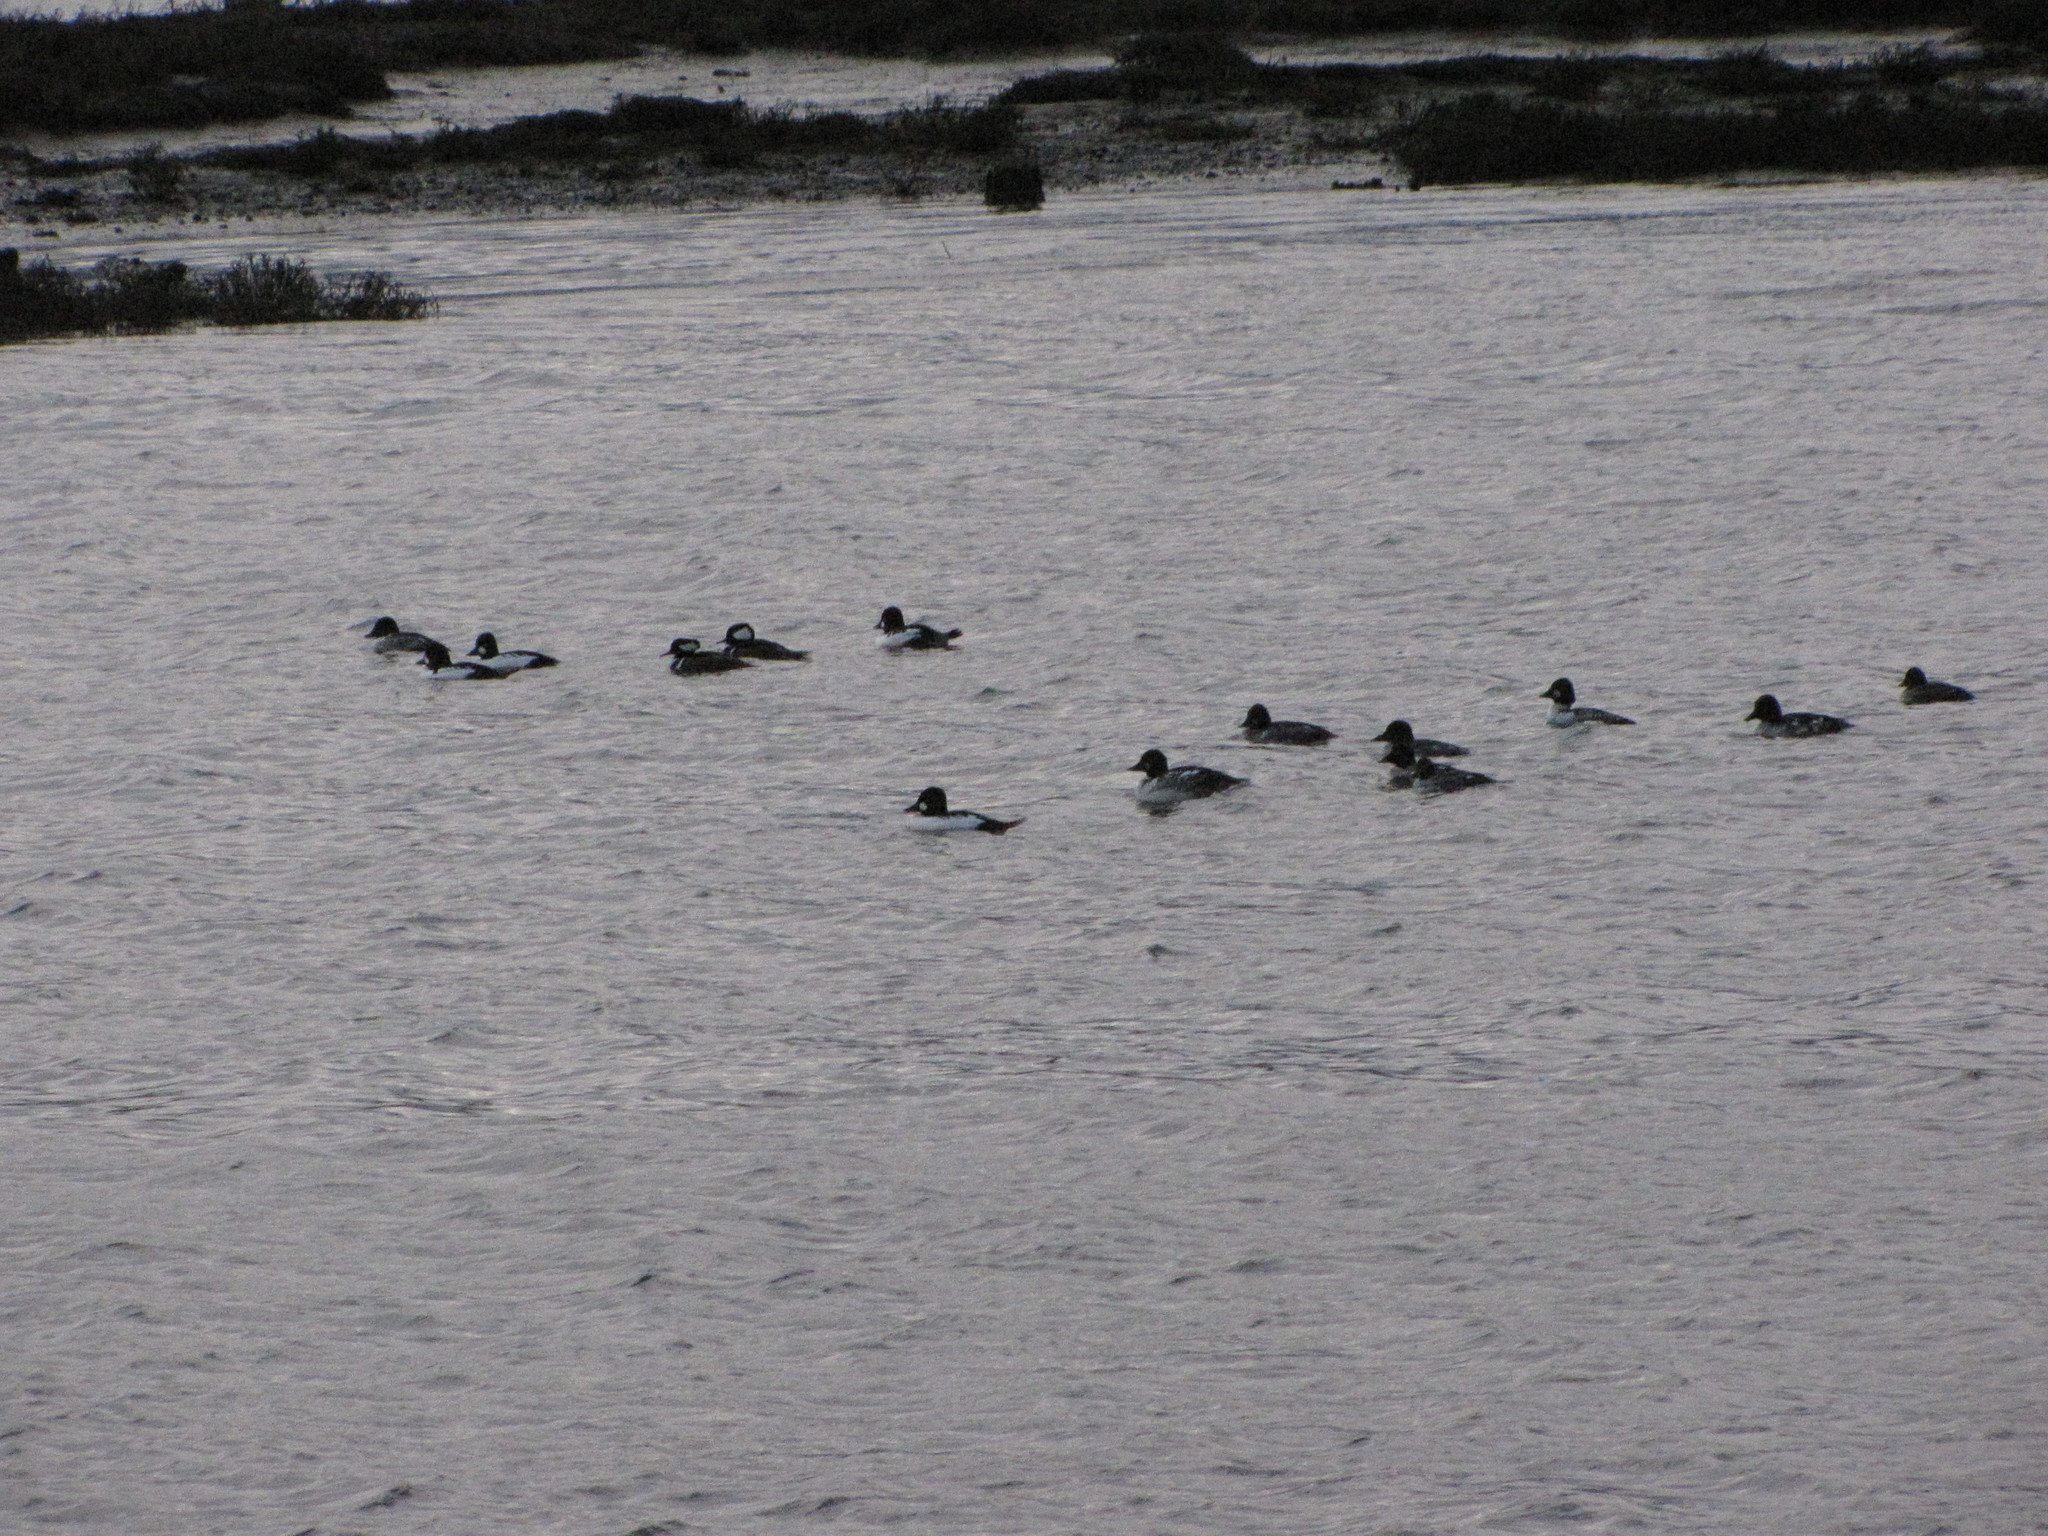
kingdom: Animalia
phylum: Chordata
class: Aves
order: Anseriformes
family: Anatidae
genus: Bucephala
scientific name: Bucephala clangula
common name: Common goldeneye
